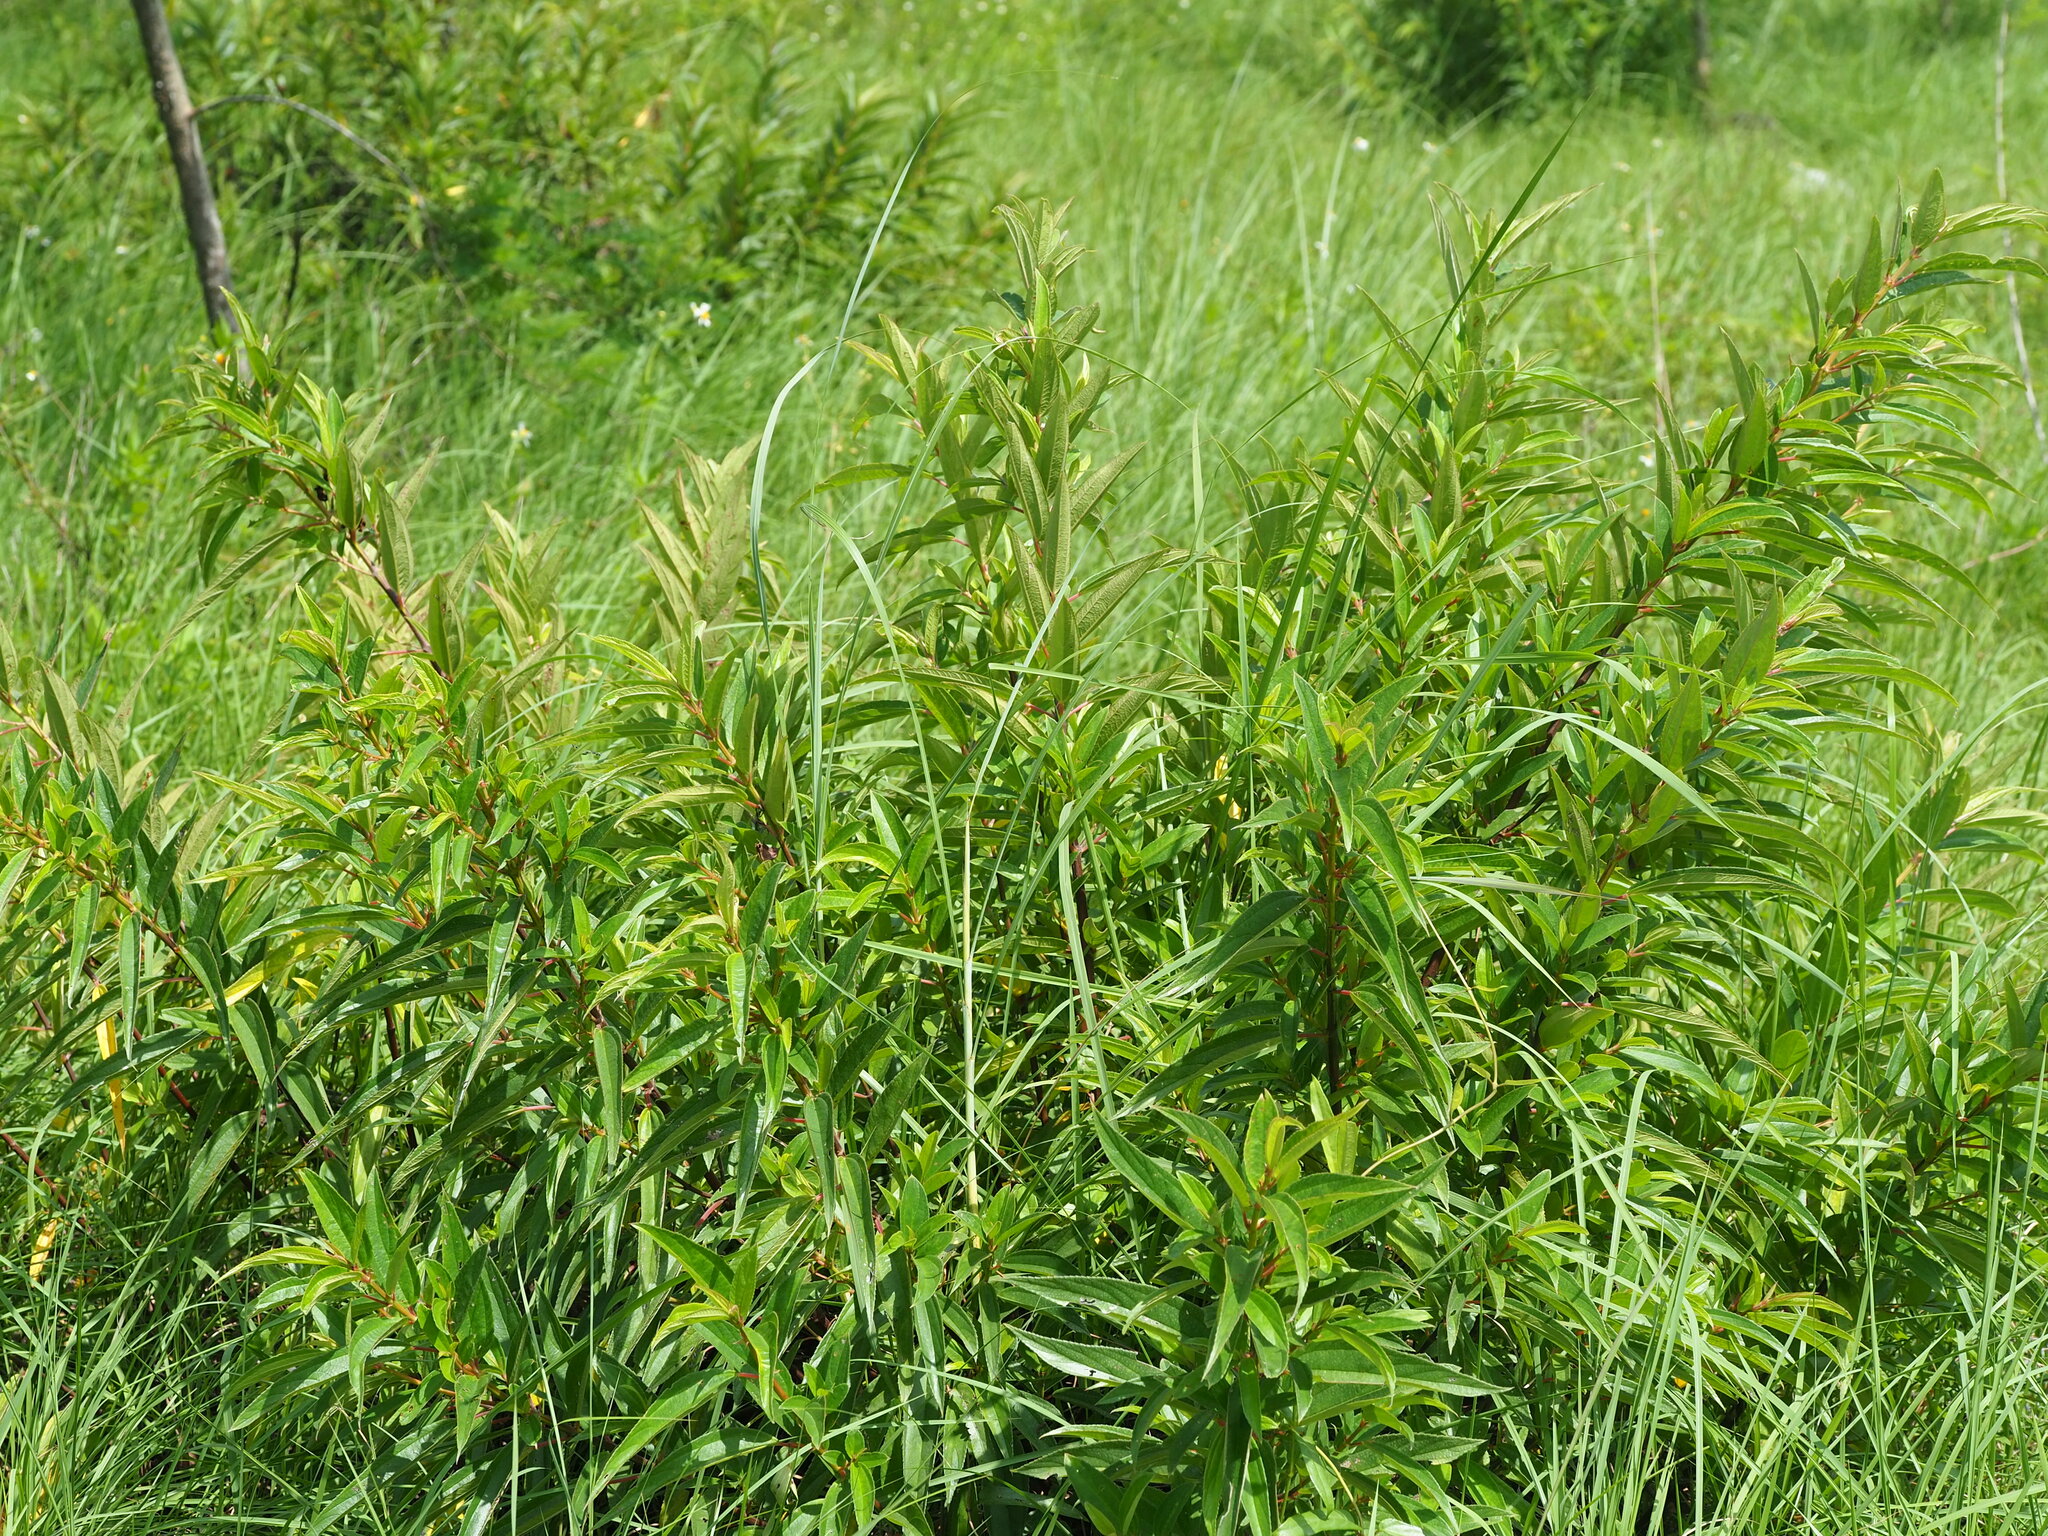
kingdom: Plantae
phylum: Tracheophyta
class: Magnoliopsida
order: Rosales
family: Urticaceae
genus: Boehmeria
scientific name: Boehmeria densiflora
